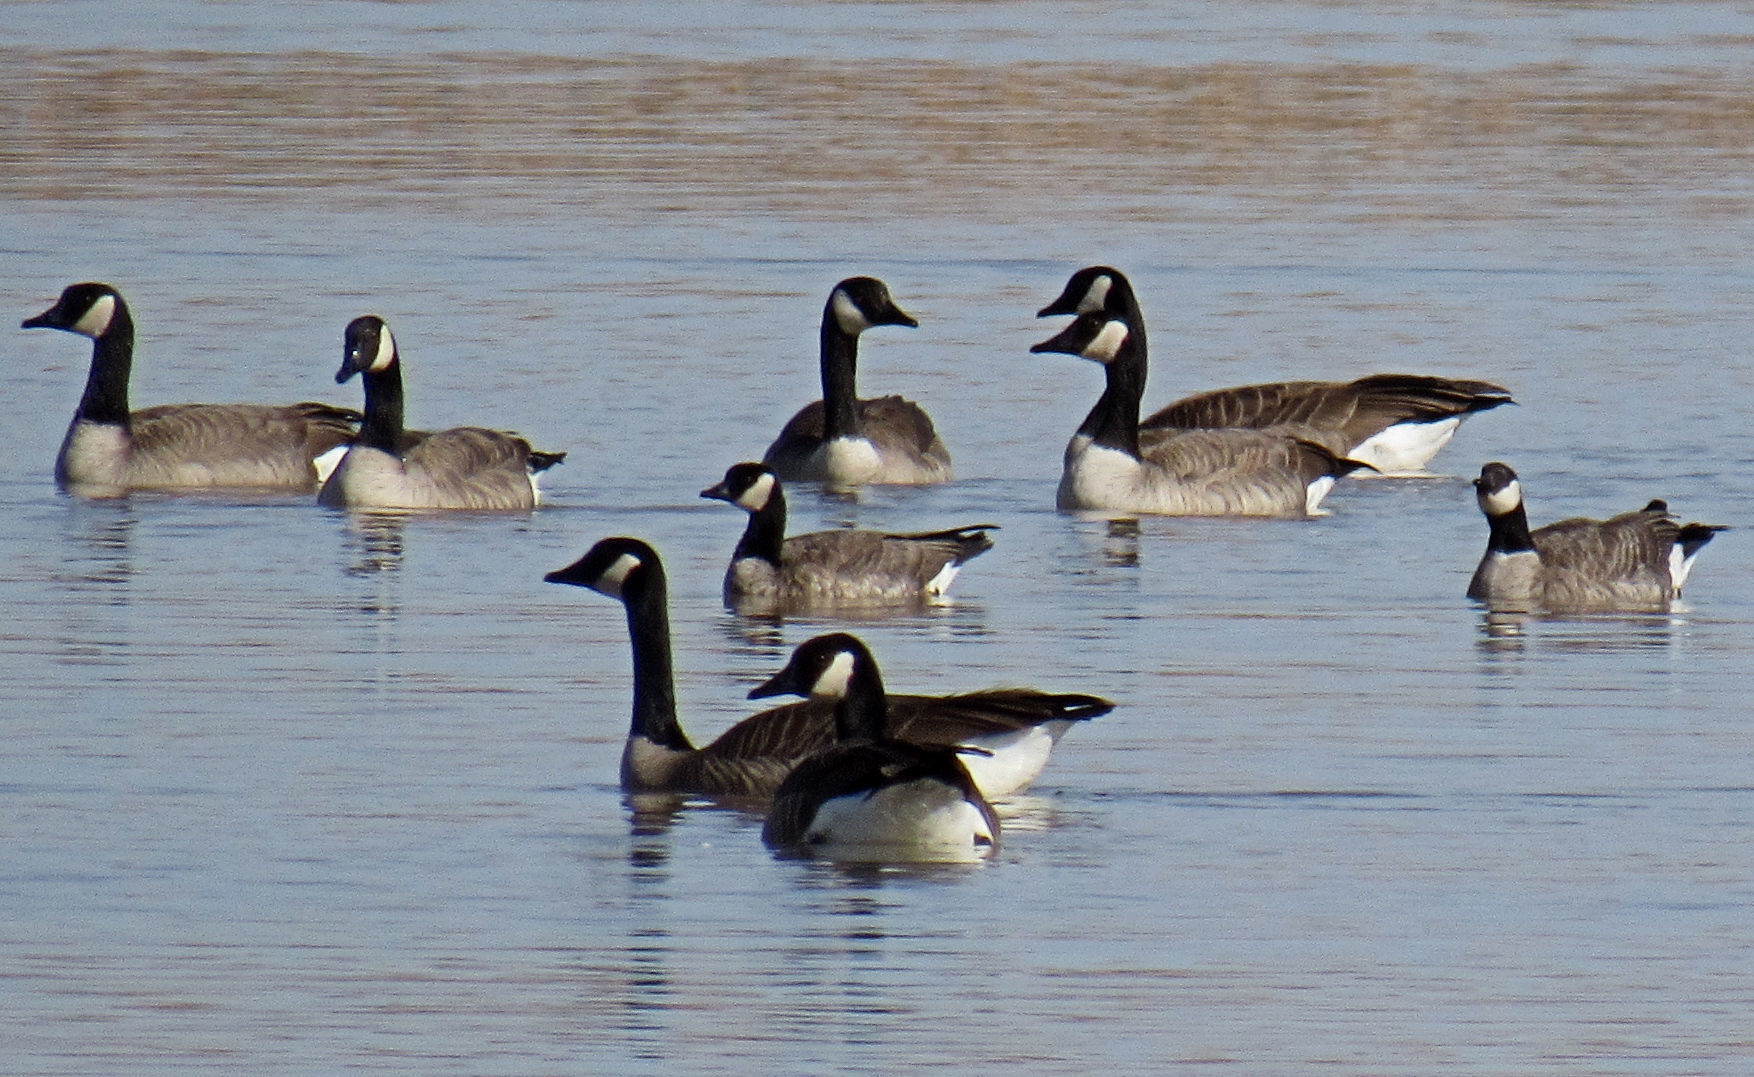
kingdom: Animalia
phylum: Chordata
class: Aves
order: Anseriformes
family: Anatidae
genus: Branta
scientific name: Branta canadensis
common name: Canada goose
